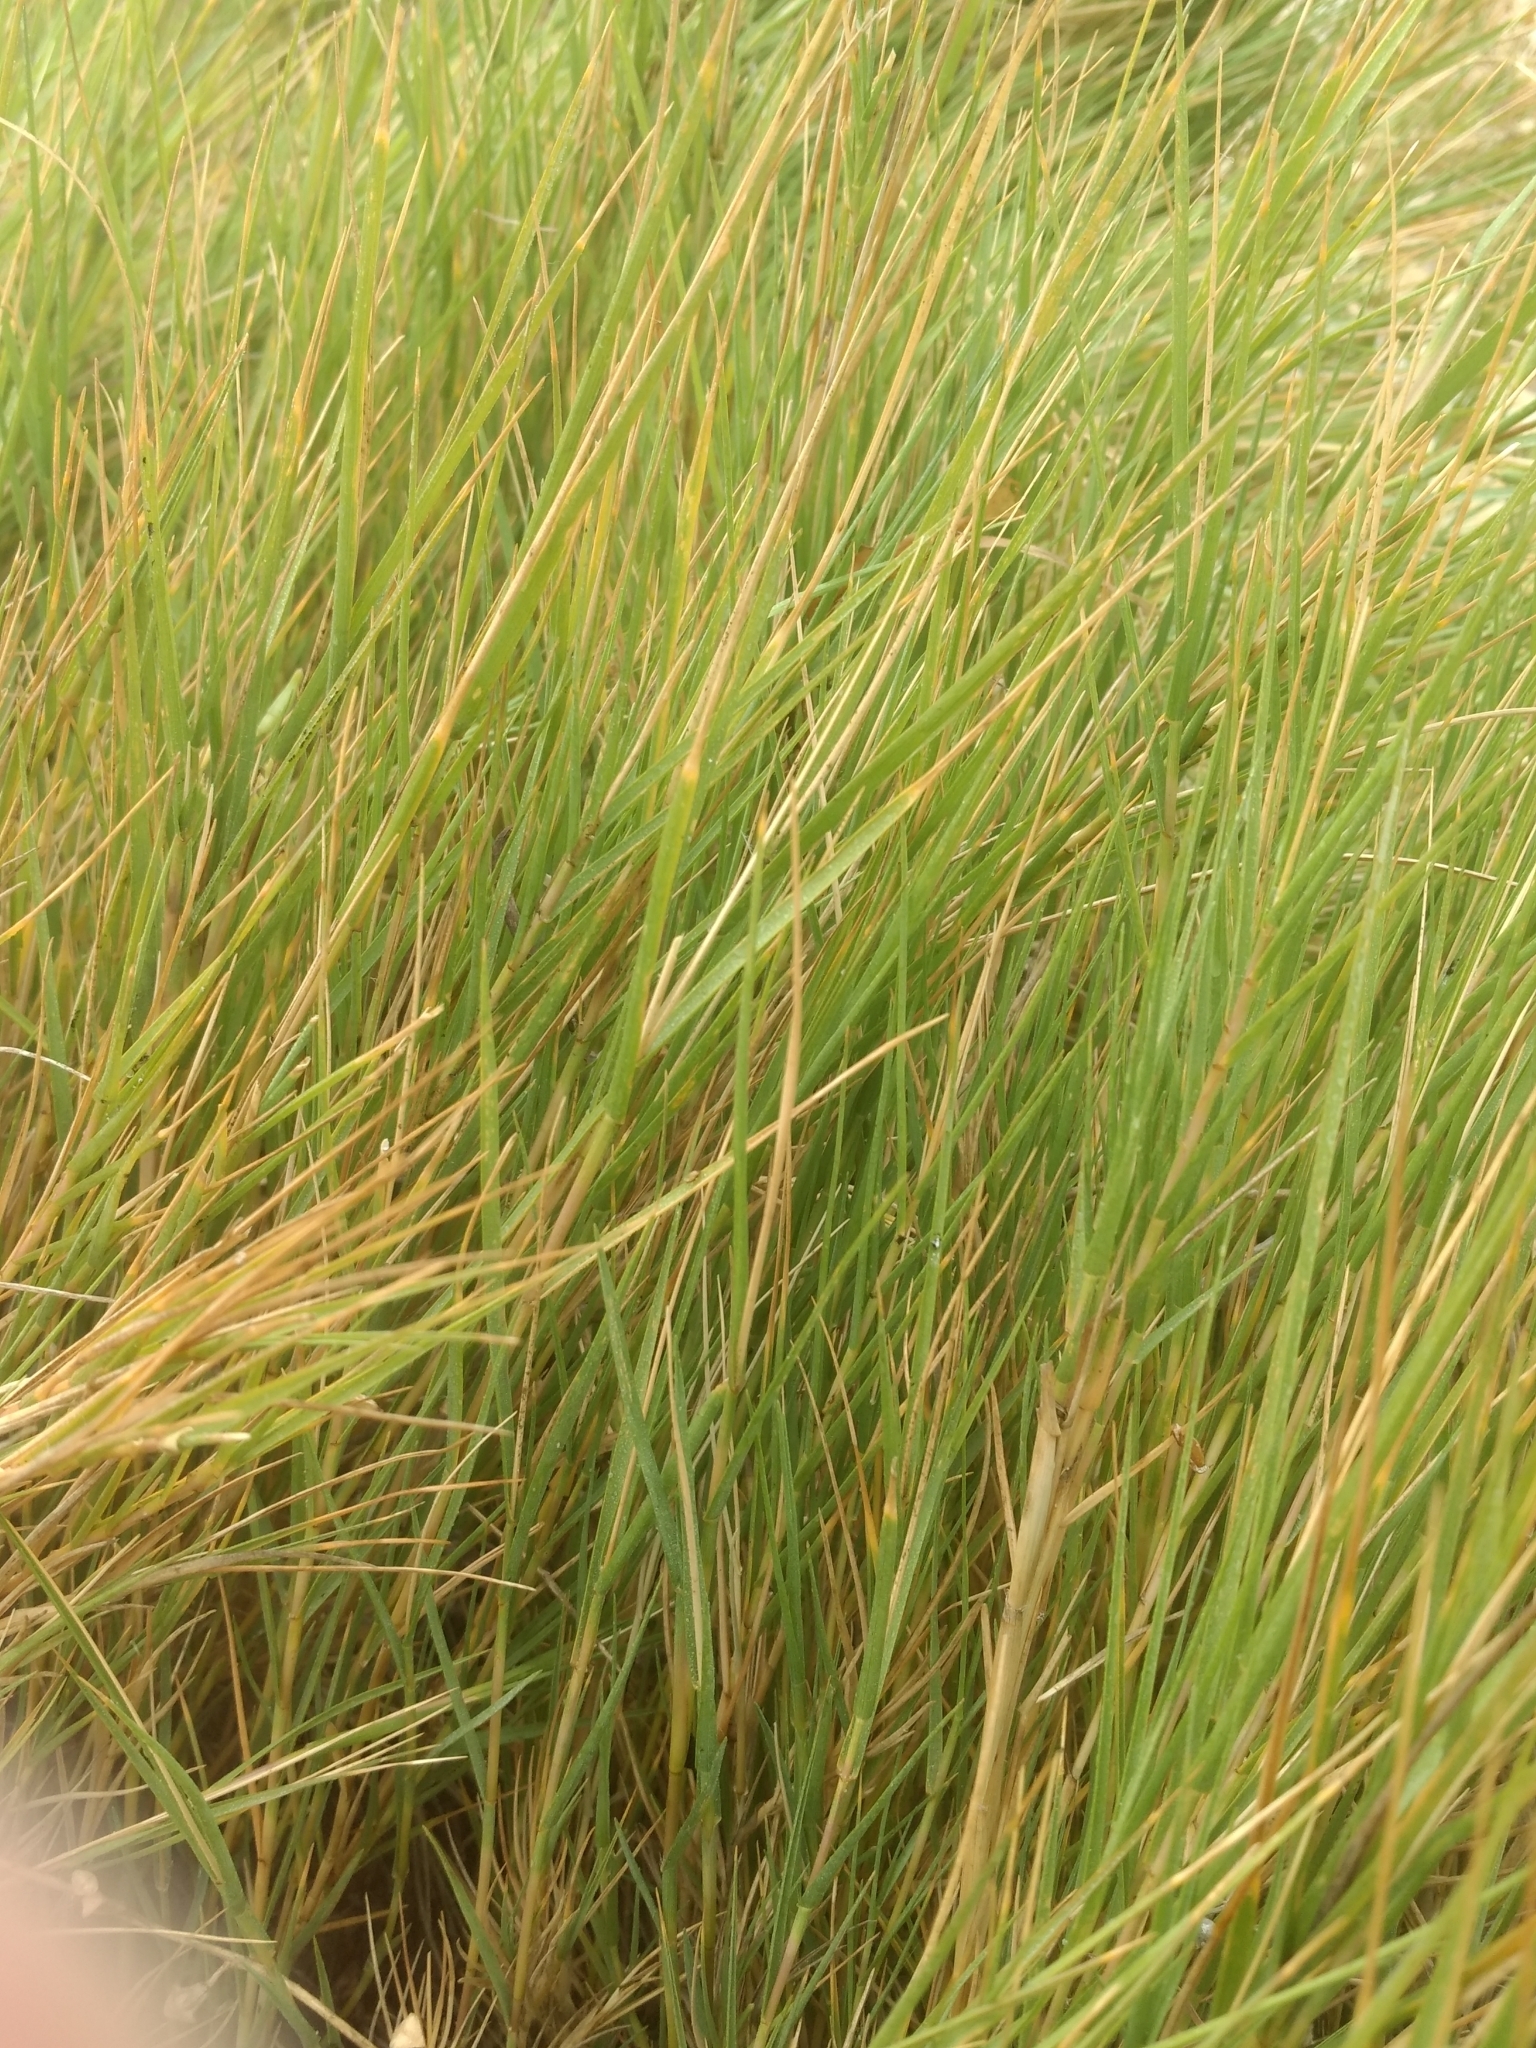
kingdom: Plantae
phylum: Tracheophyta
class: Liliopsida
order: Poales
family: Poaceae
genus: Distichlis
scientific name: Distichlis spicata
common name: Saltgrass
